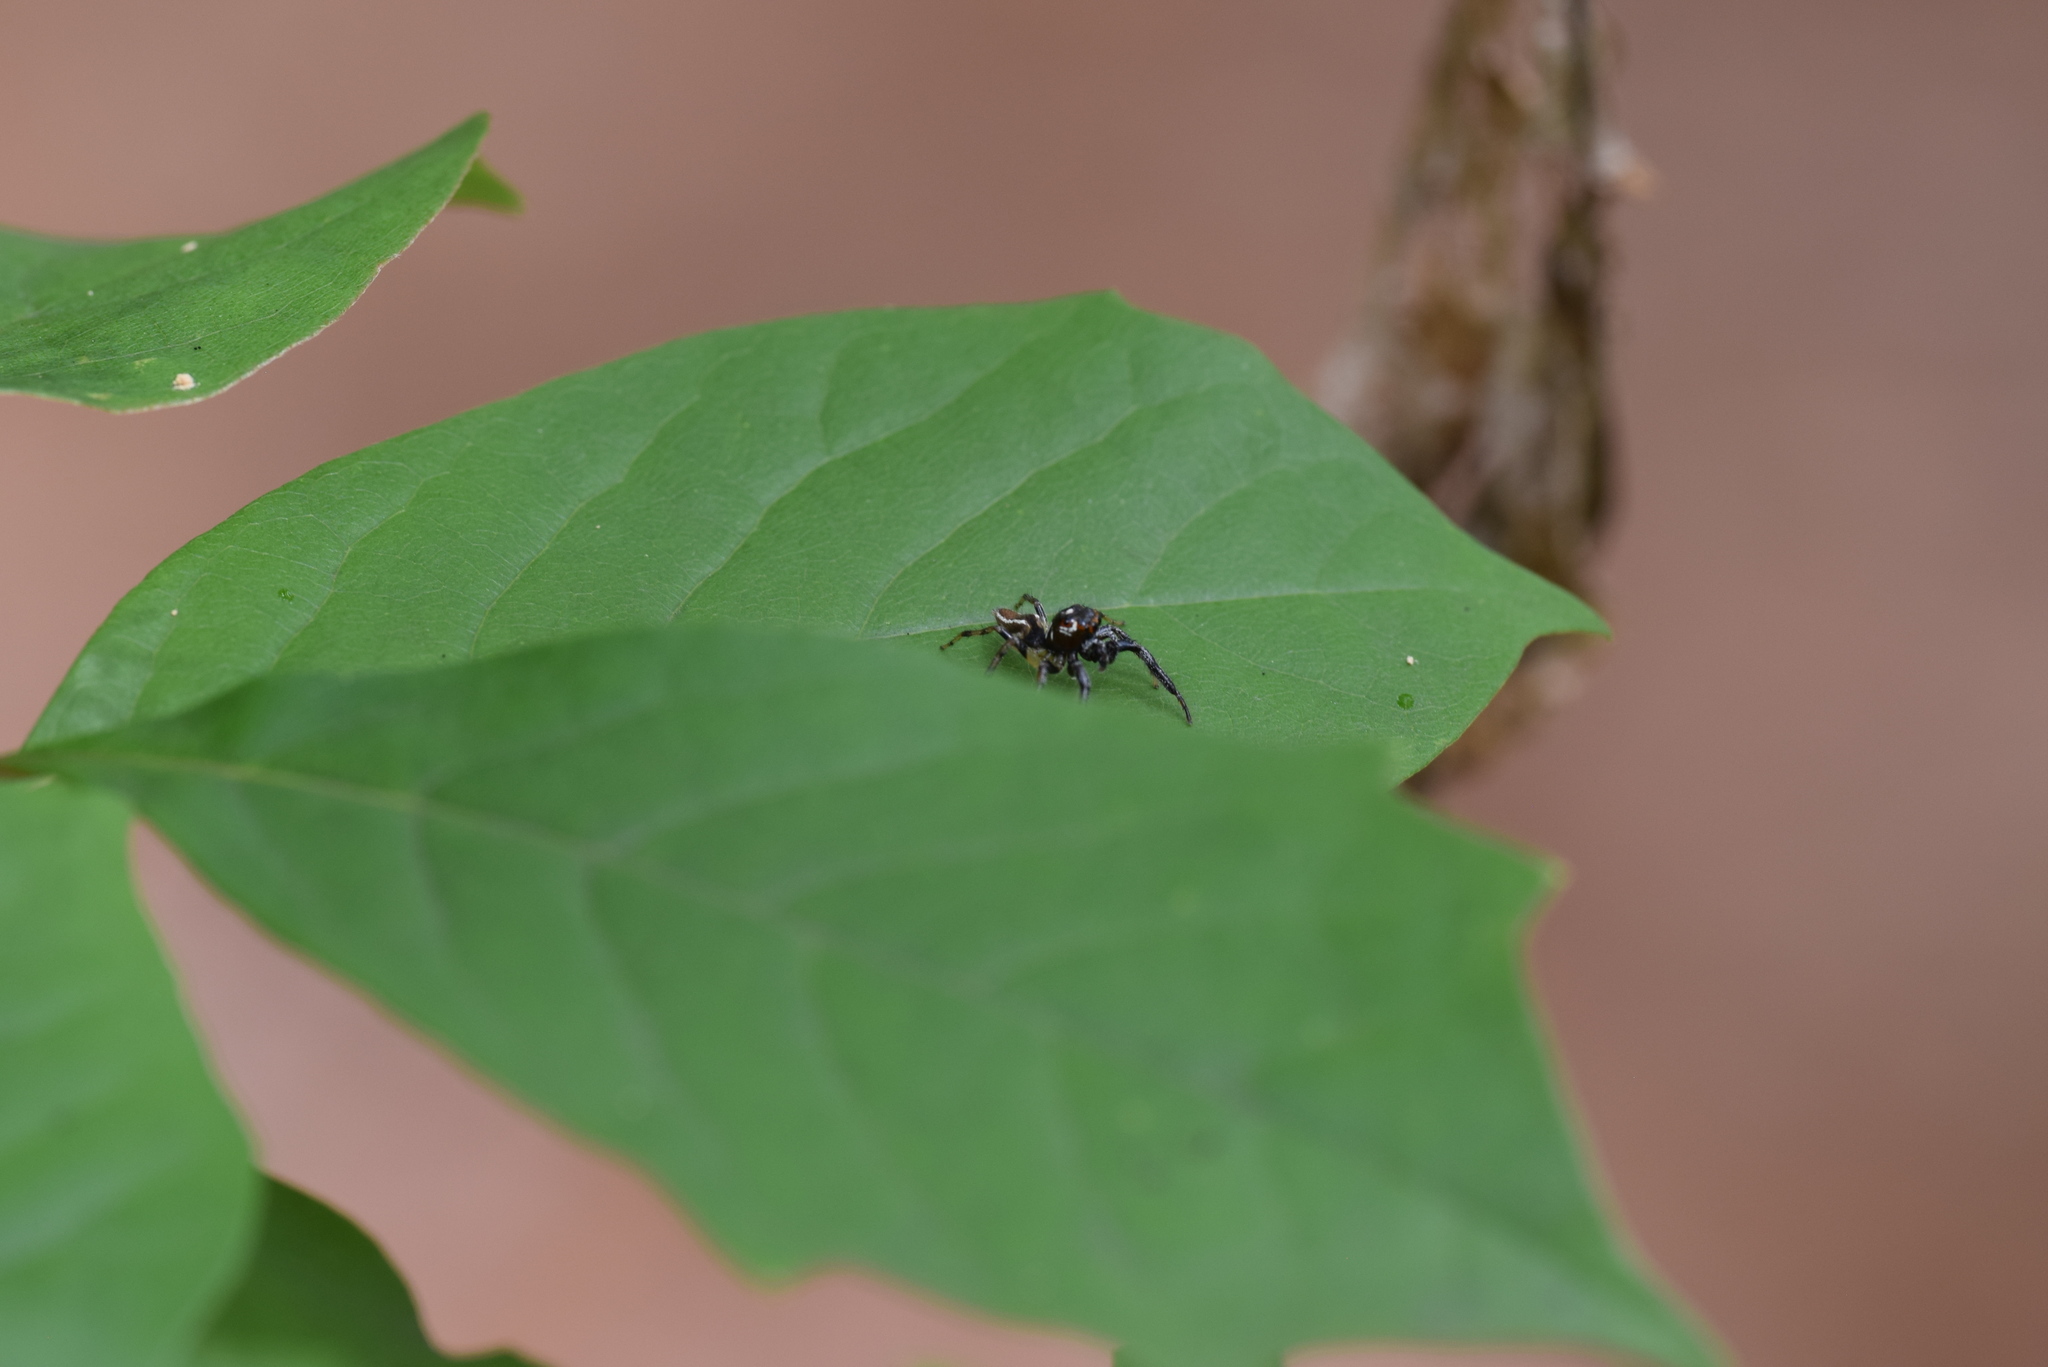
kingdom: Animalia
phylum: Arthropoda
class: Arachnida
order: Araneae
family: Salticidae
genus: Colonus
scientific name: Colonus sylvanus
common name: Jumping spiders
